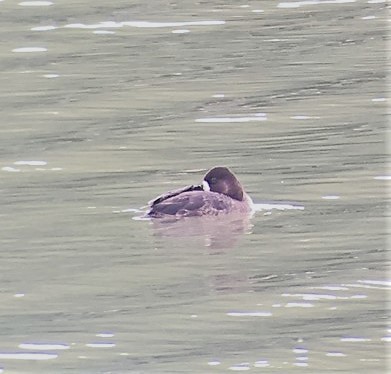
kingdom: Animalia
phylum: Chordata
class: Aves
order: Anseriformes
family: Anatidae
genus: Aythya
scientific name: Aythya affinis
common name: Lesser scaup
